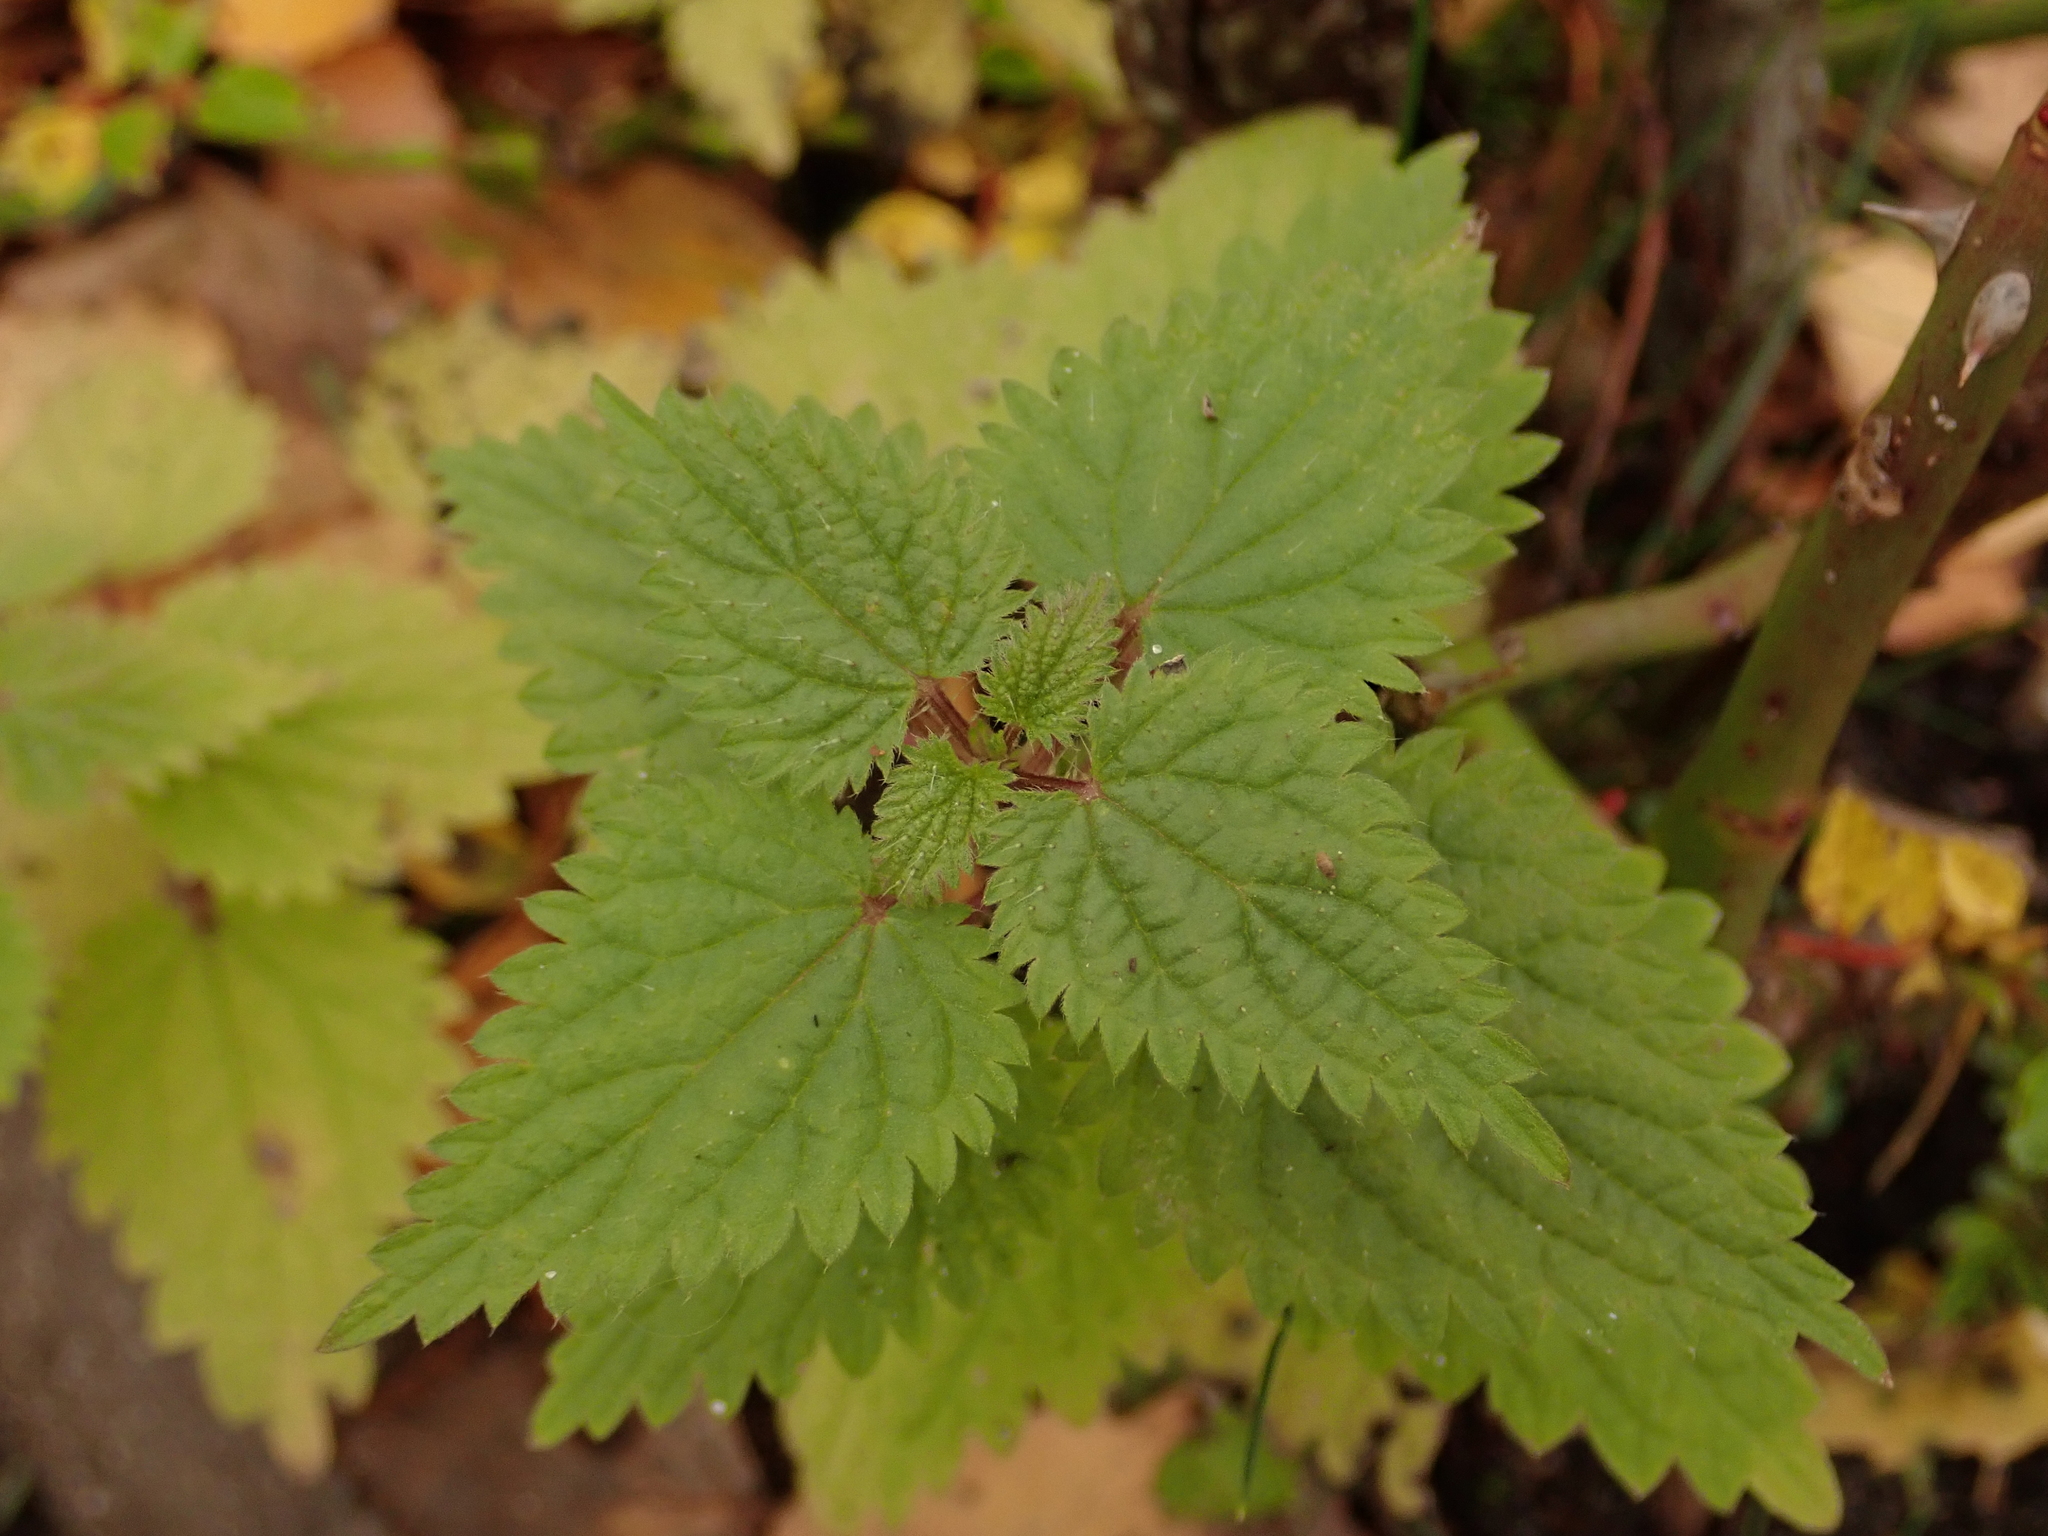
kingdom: Plantae
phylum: Tracheophyta
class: Magnoliopsida
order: Rosales
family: Urticaceae
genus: Urtica
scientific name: Urtica dioica
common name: Common nettle
